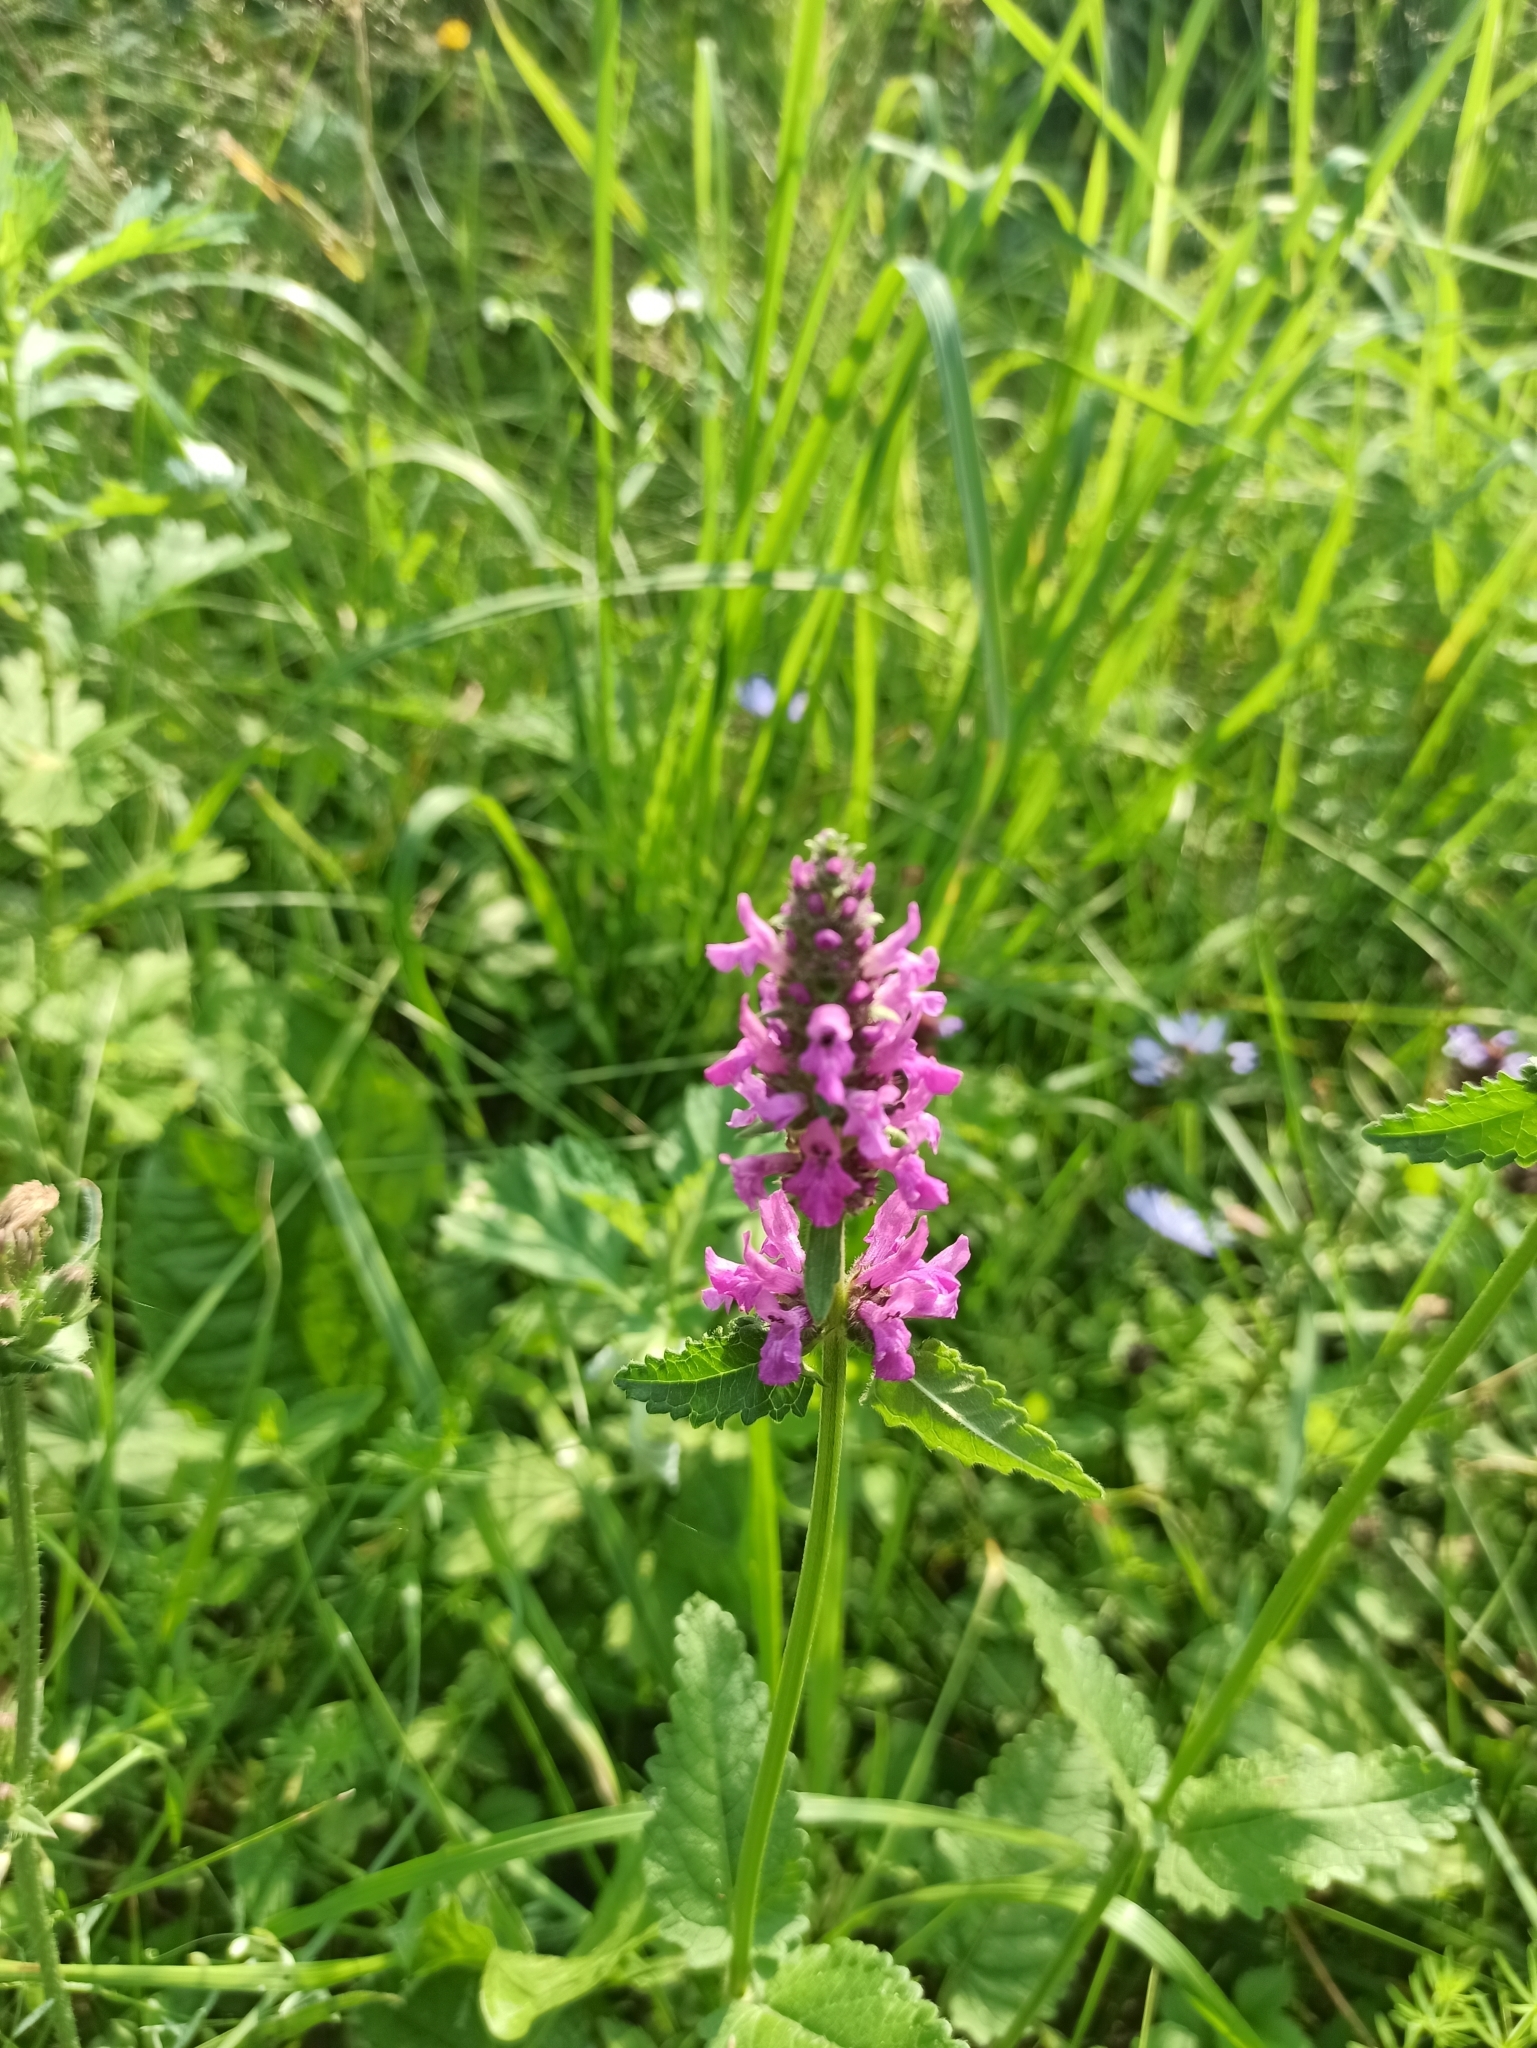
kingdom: Plantae
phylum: Tracheophyta
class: Magnoliopsida
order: Lamiales
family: Lamiaceae
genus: Betonica
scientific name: Betonica officinalis
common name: Bishop's-wort
